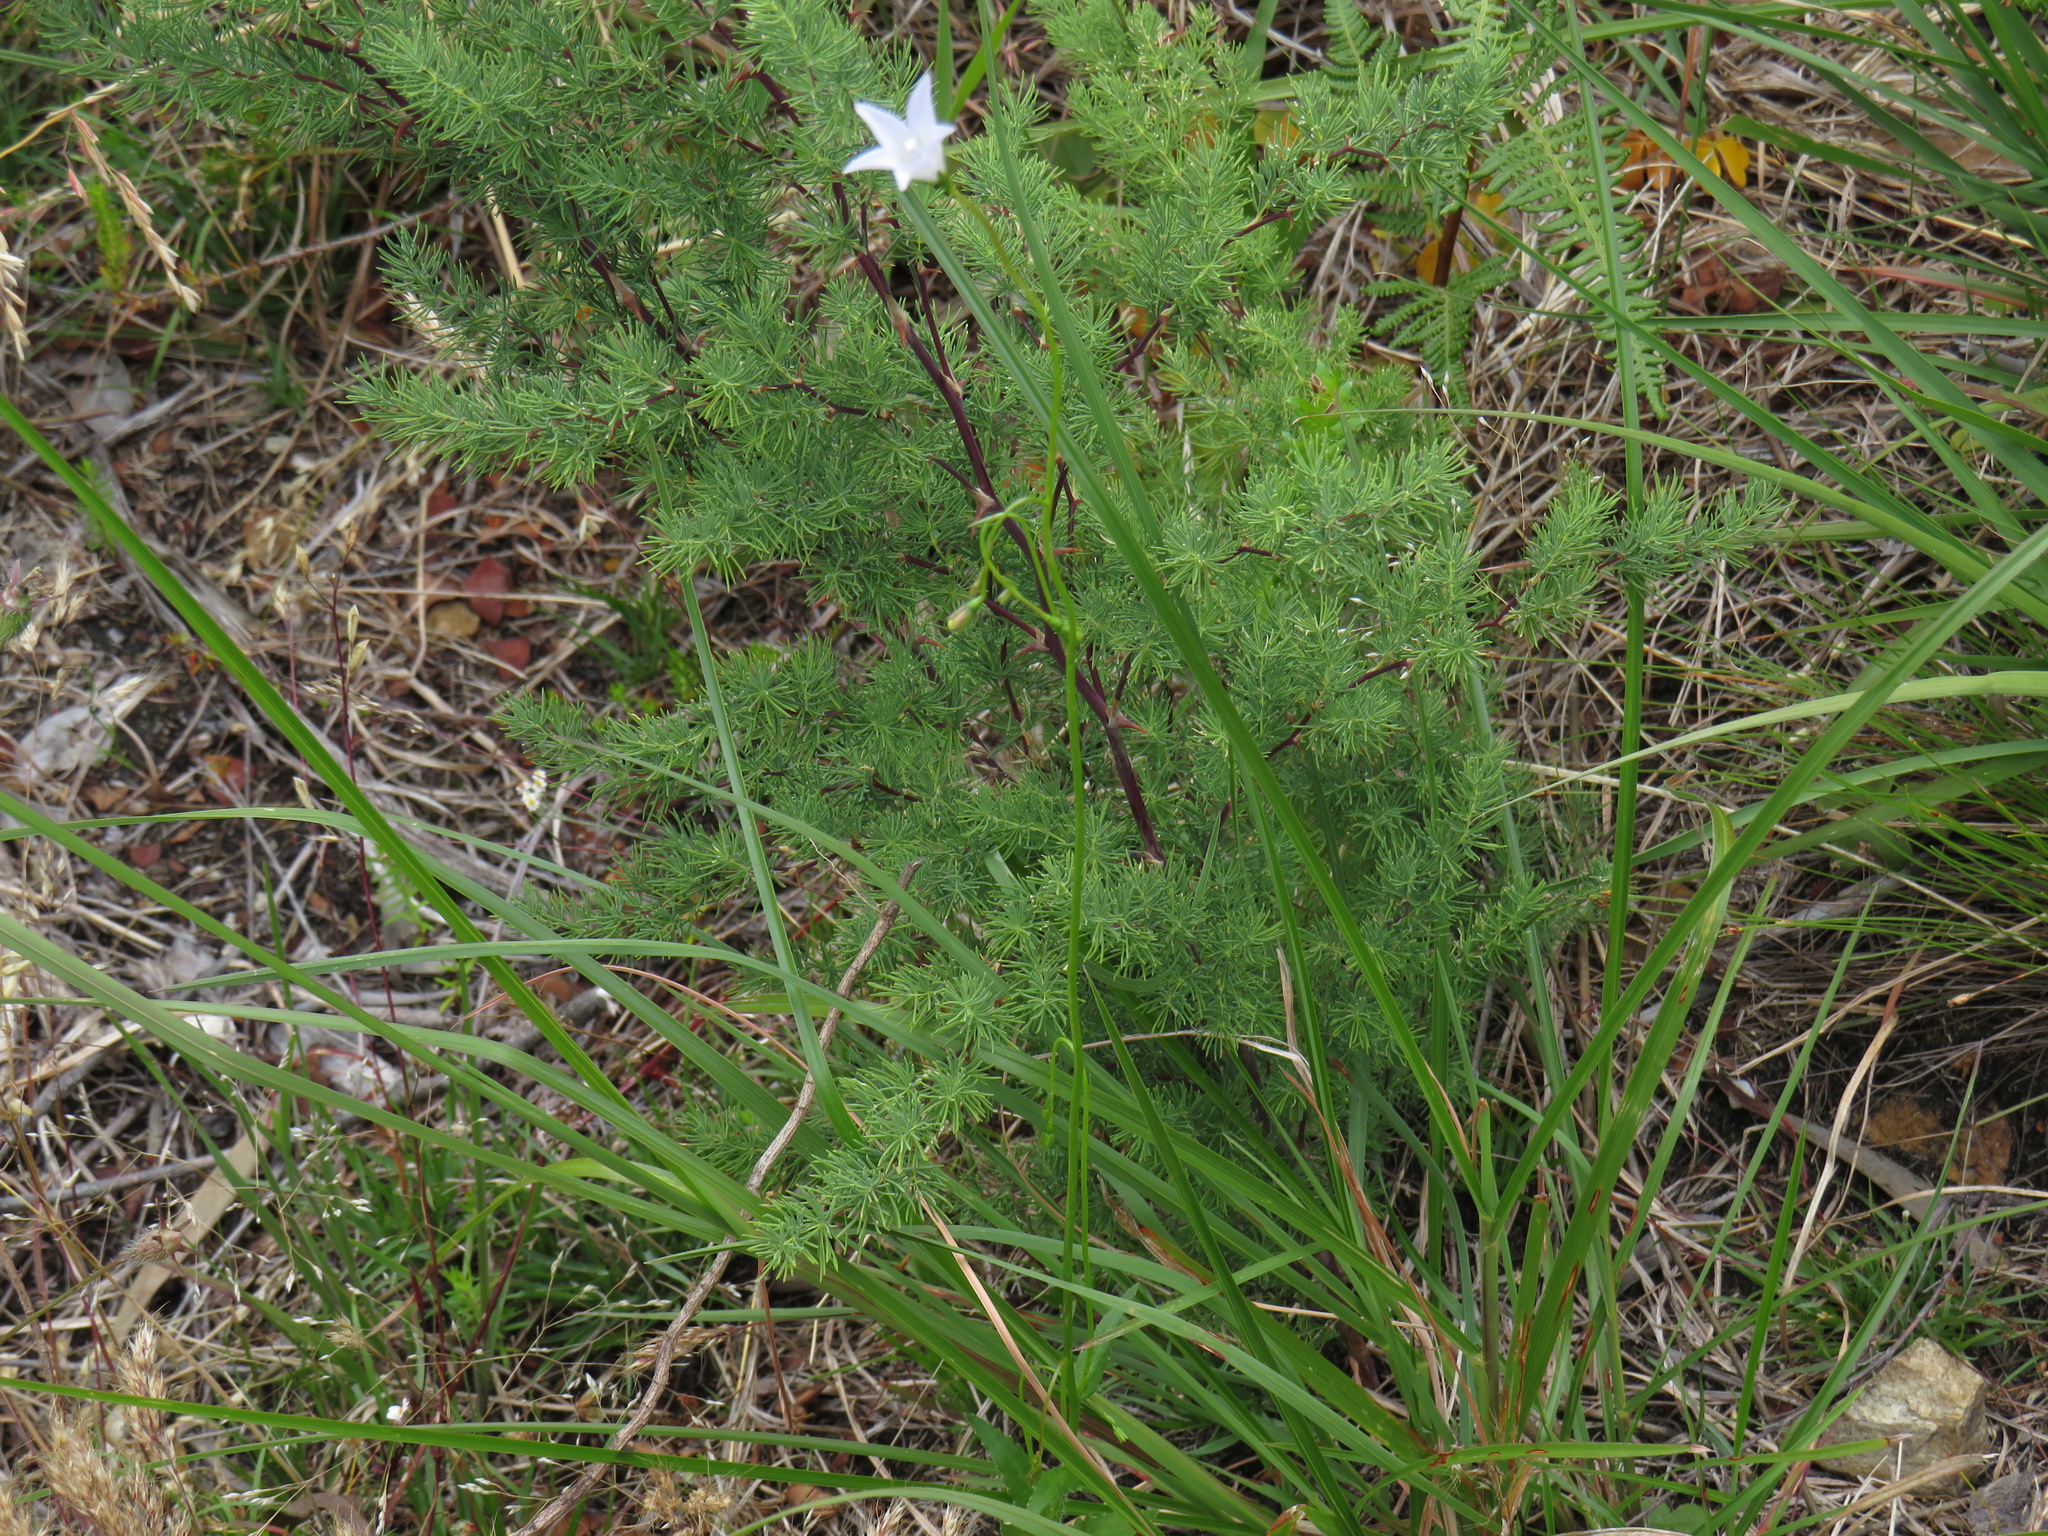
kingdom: Plantae
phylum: Tracheophyta
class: Liliopsida
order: Asparagales
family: Asparagaceae
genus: Asparagus
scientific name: Asparagus rubicundus
